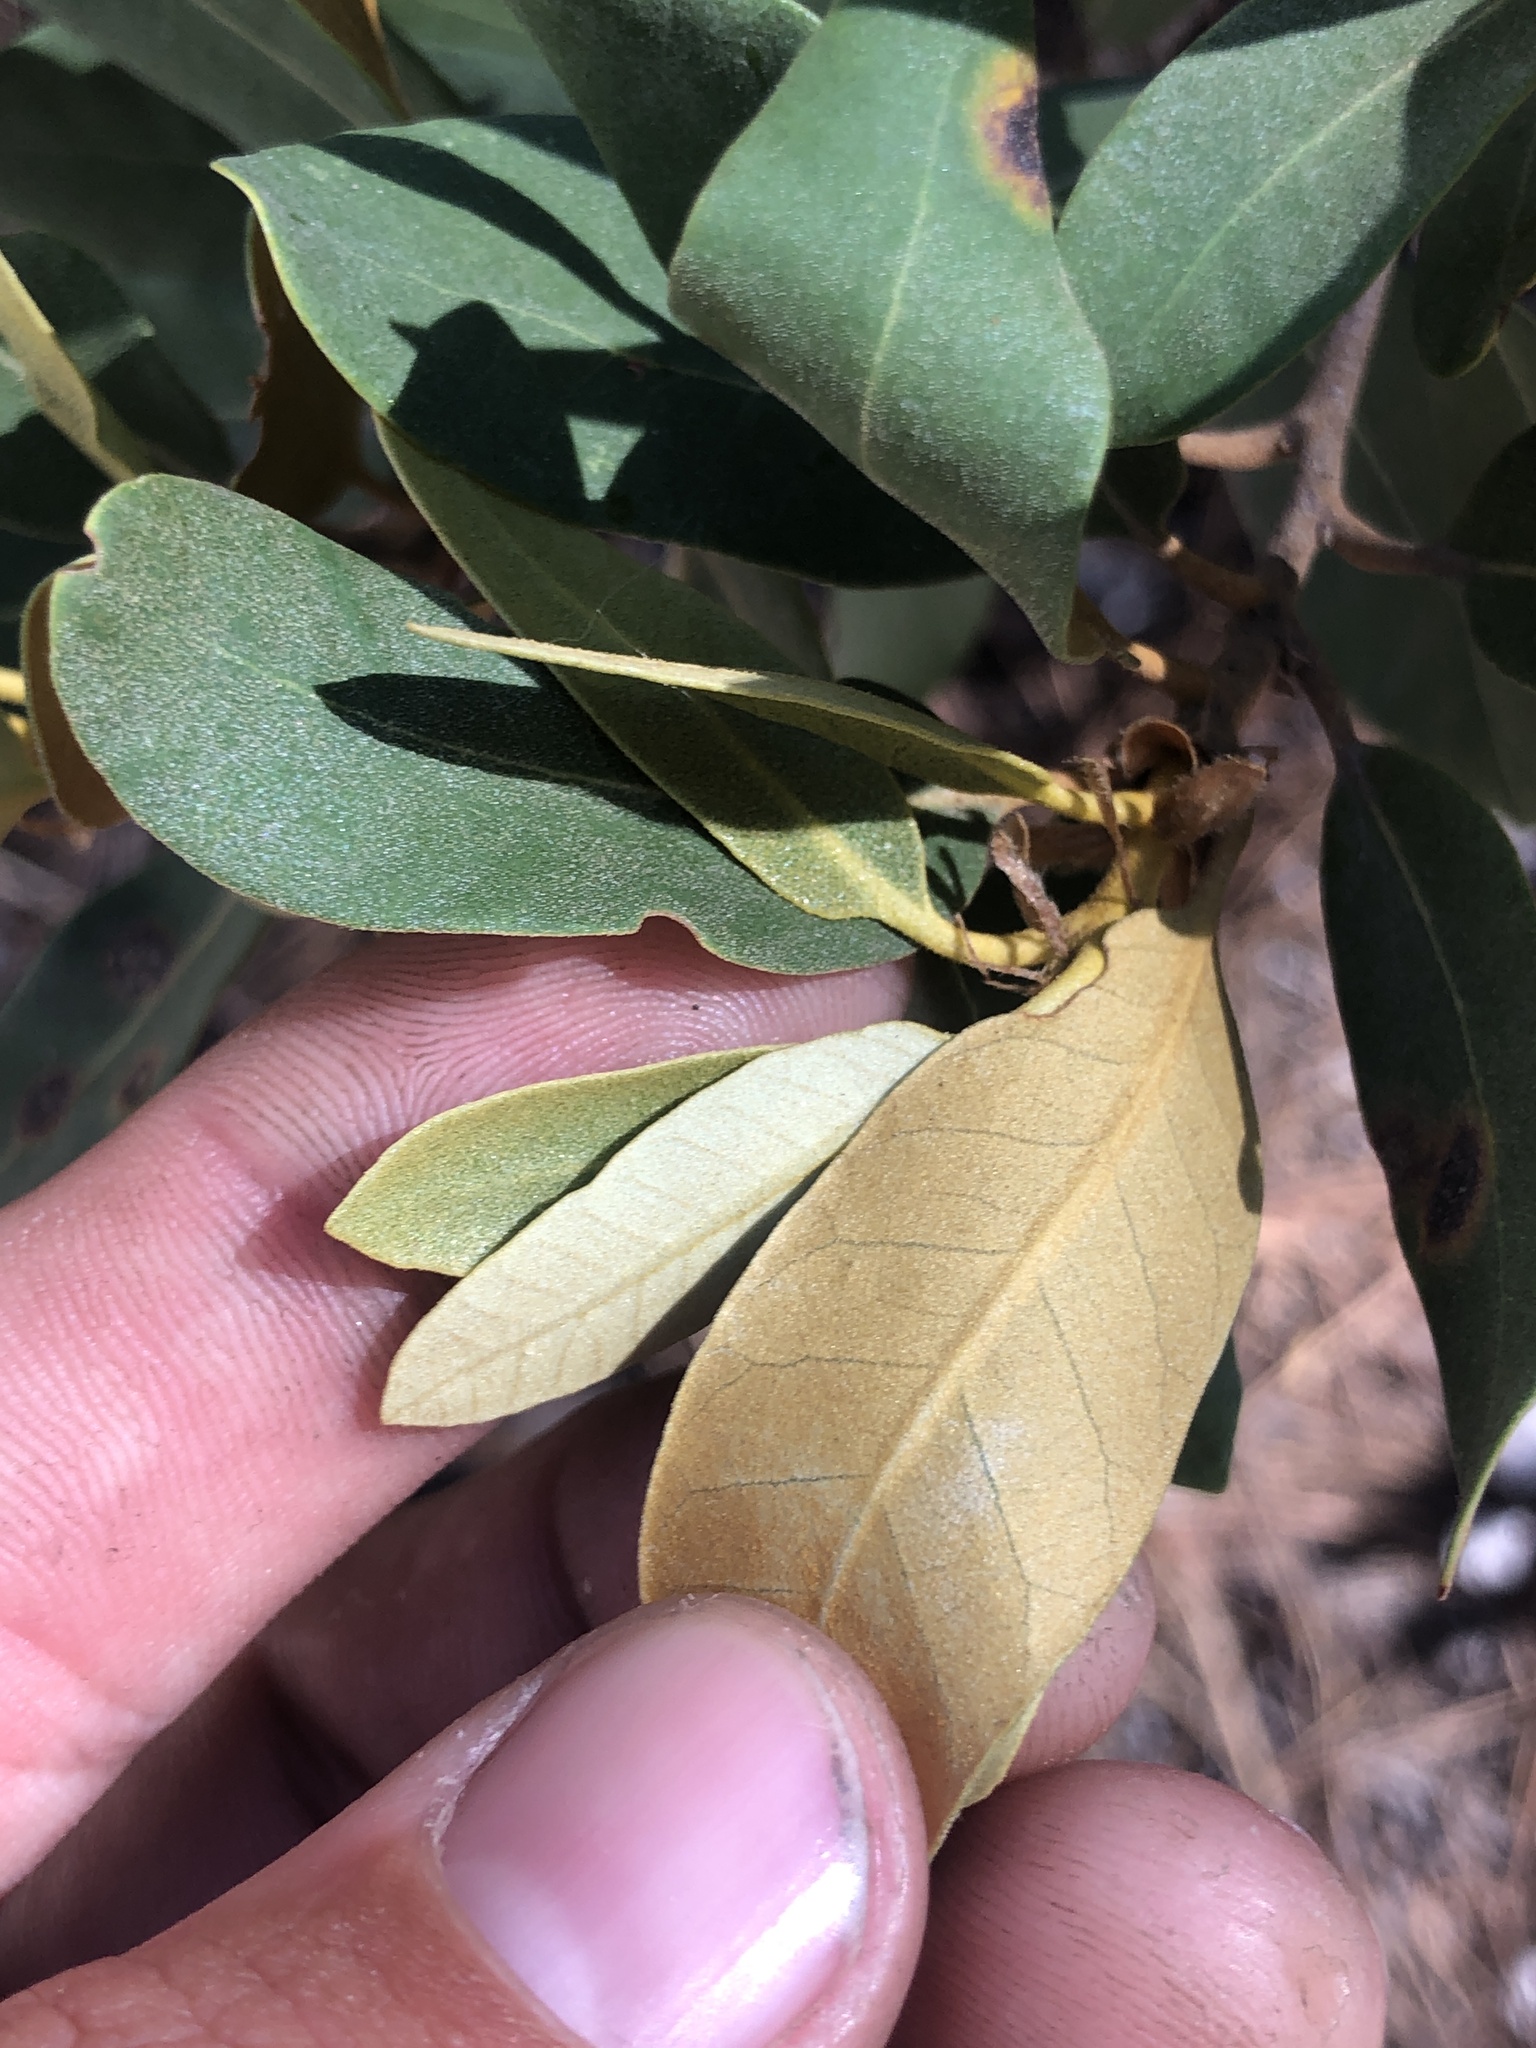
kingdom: Plantae
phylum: Tracheophyta
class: Magnoliopsida
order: Fagales
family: Fagaceae
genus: Chrysolepis
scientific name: Chrysolepis sempervirens
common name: Bush chinquapin
